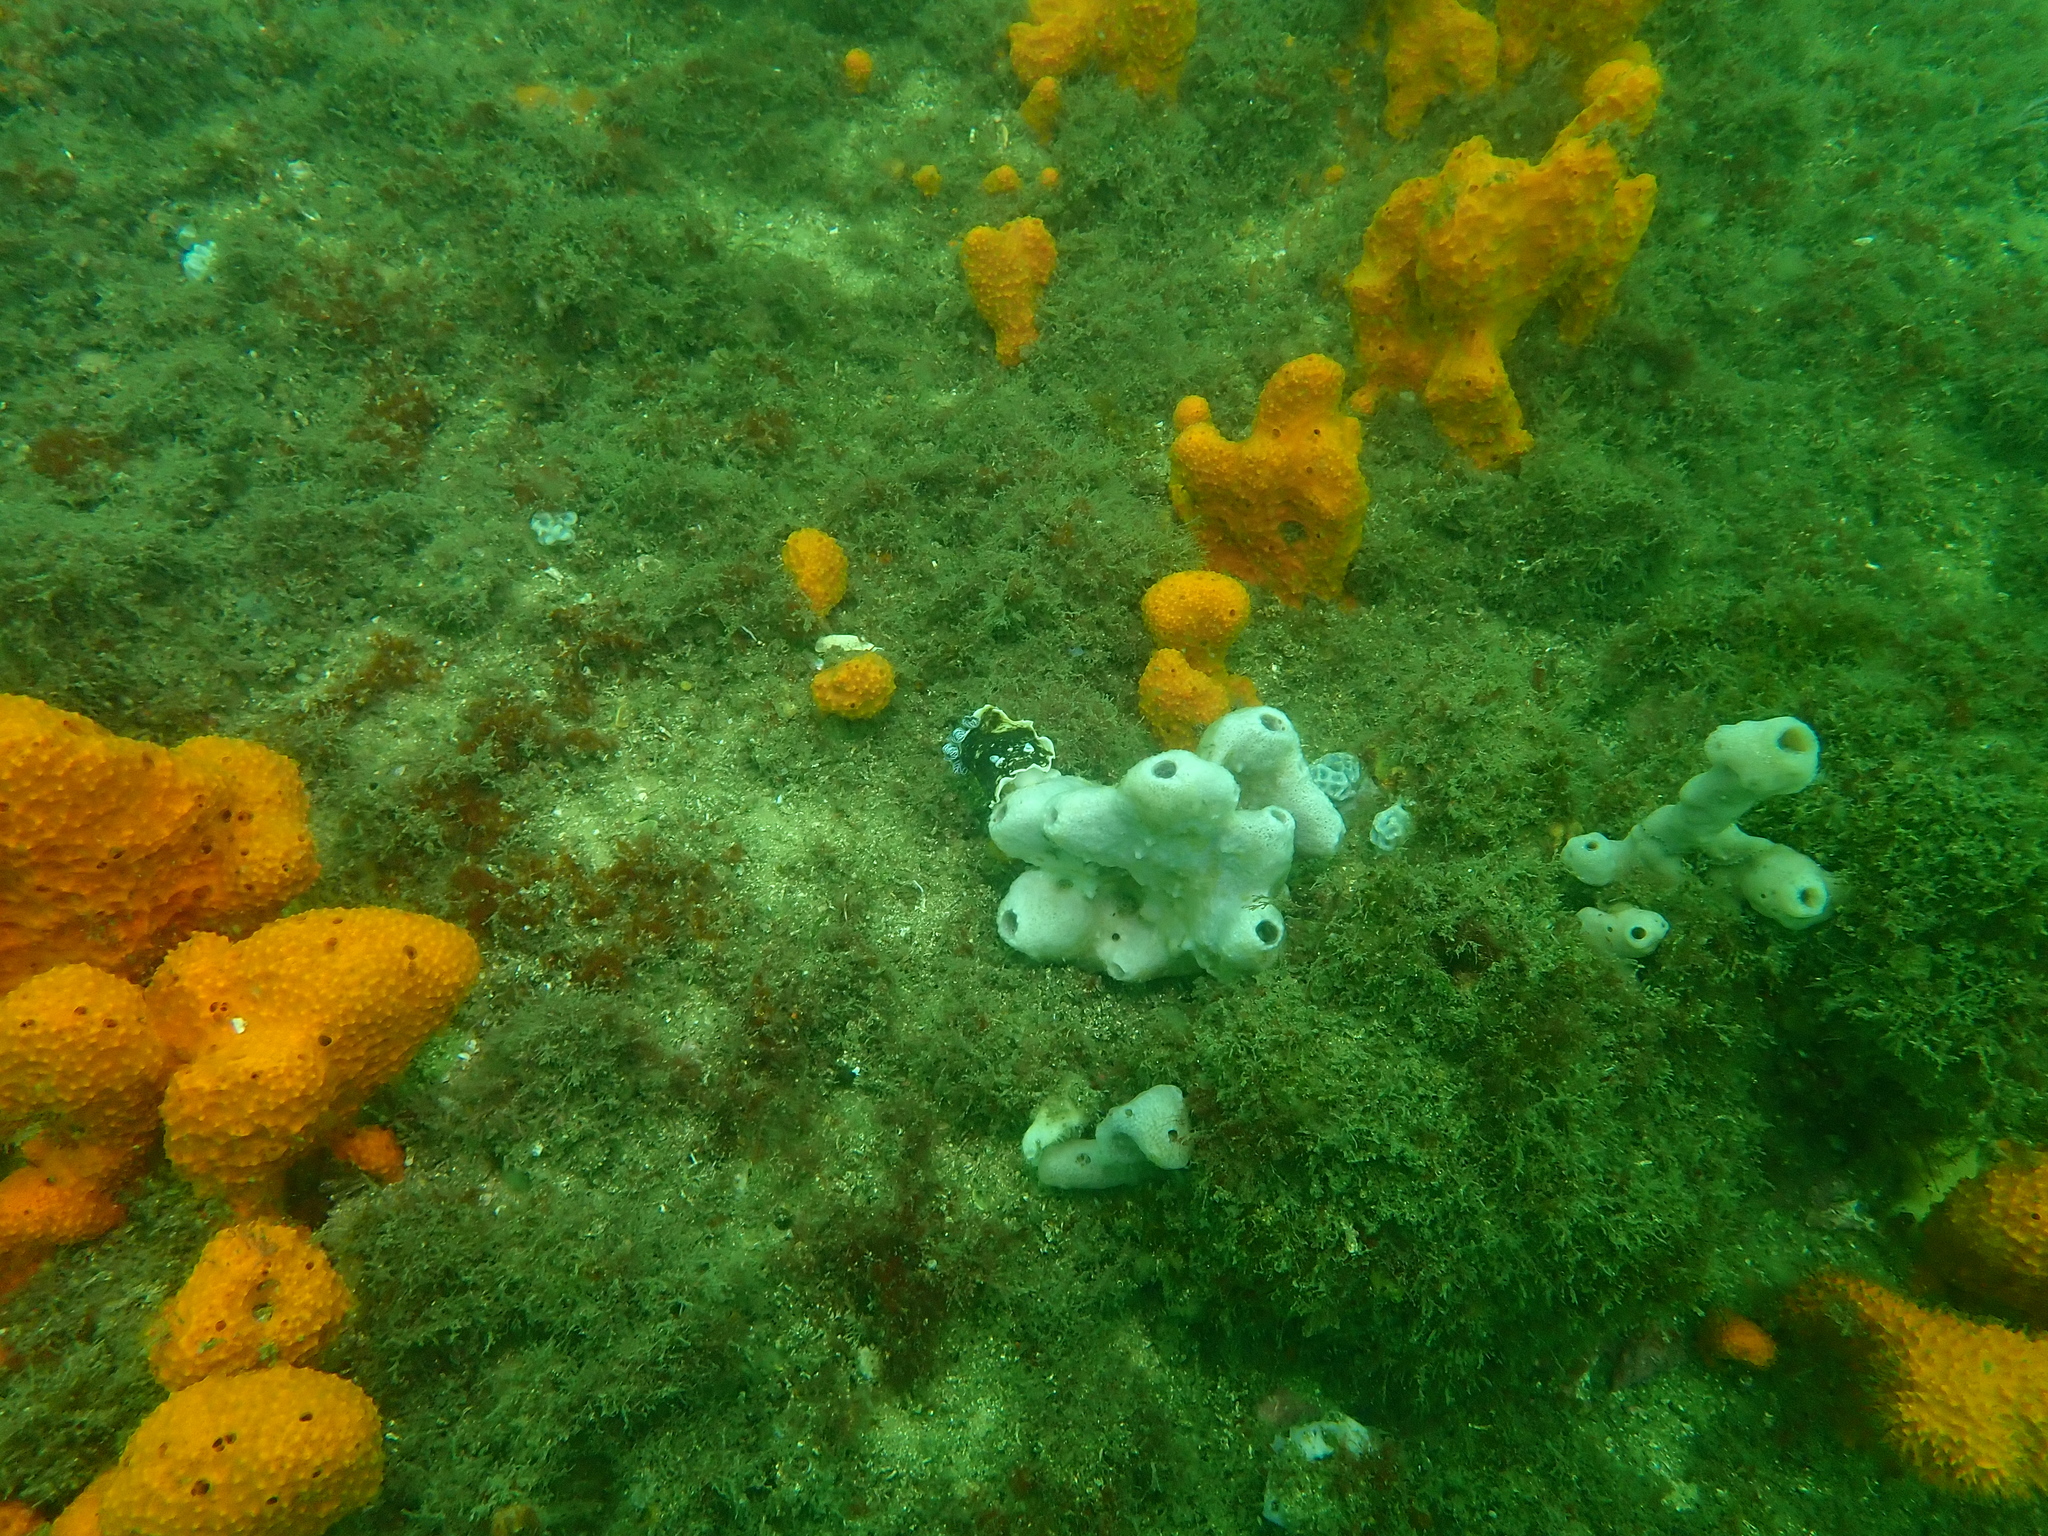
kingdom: Animalia
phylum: Mollusca
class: Gastropoda
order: Nudibranchia
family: Dorididae
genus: Aphelodoris
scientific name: Aphelodoris varia
